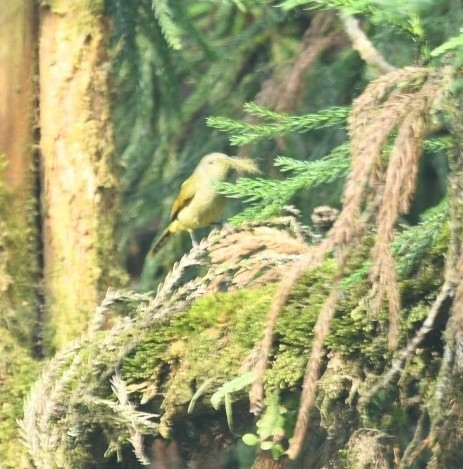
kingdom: Animalia
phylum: Chordata
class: Aves
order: Passeriformes
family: Nectariniidae
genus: Aethopyga
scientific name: Aethopyga nipalensis
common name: Green-tailed sunbird
